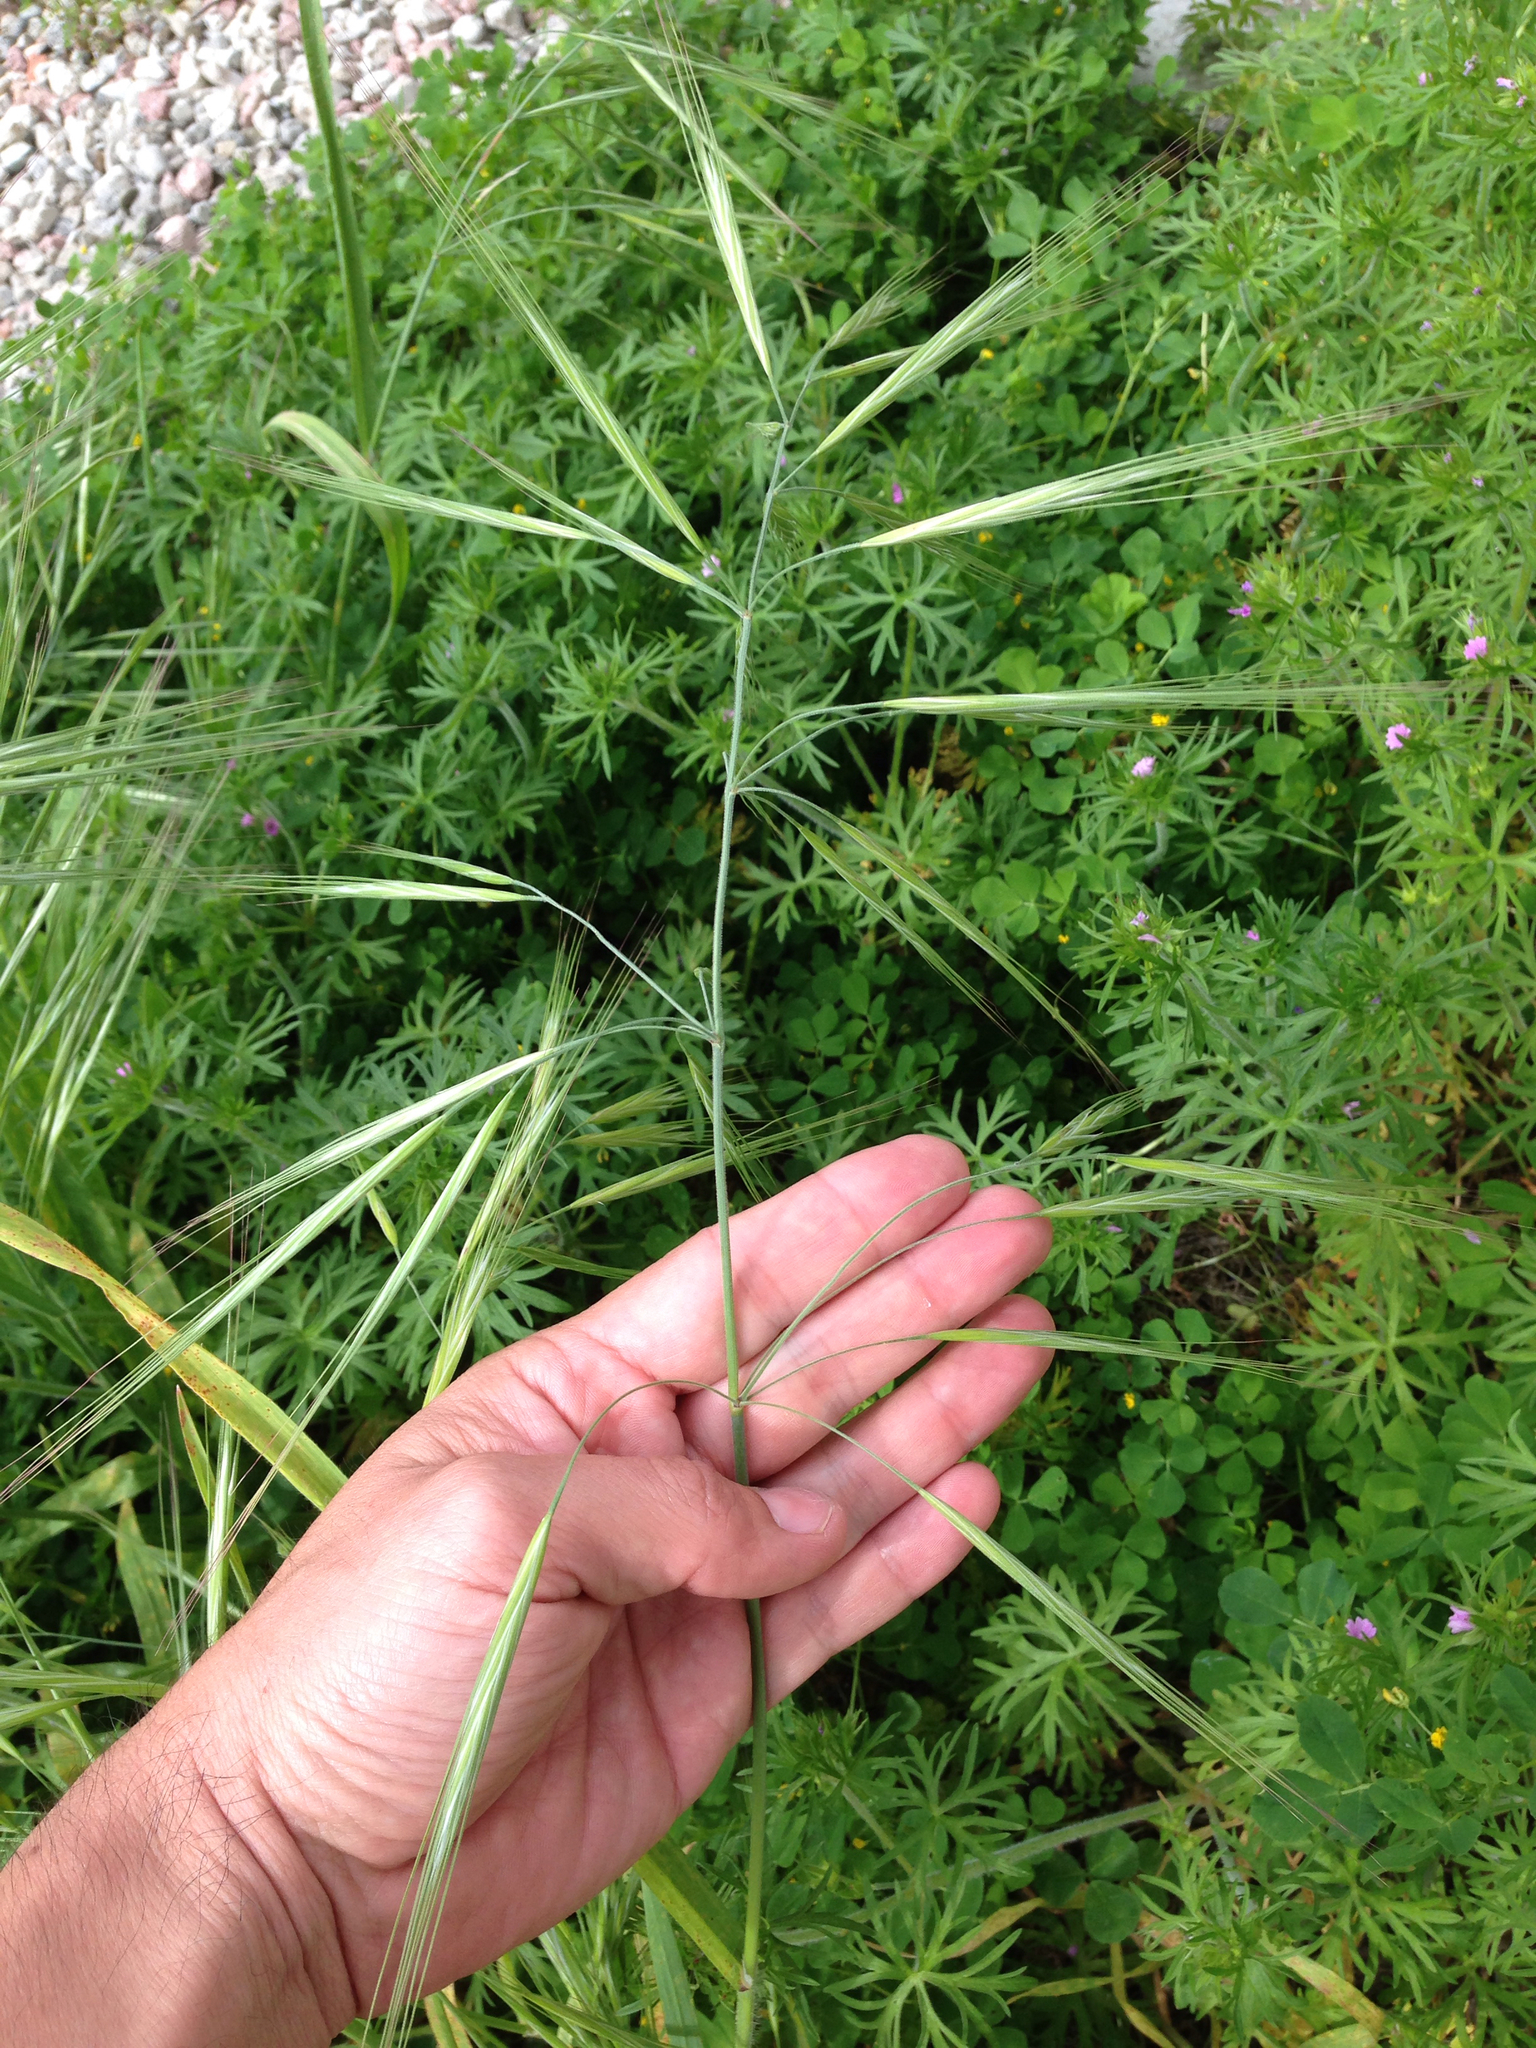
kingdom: Plantae
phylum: Tracheophyta
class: Liliopsida
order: Poales
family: Poaceae
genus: Bromus
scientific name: Bromus diandrus
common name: Ripgut brome
